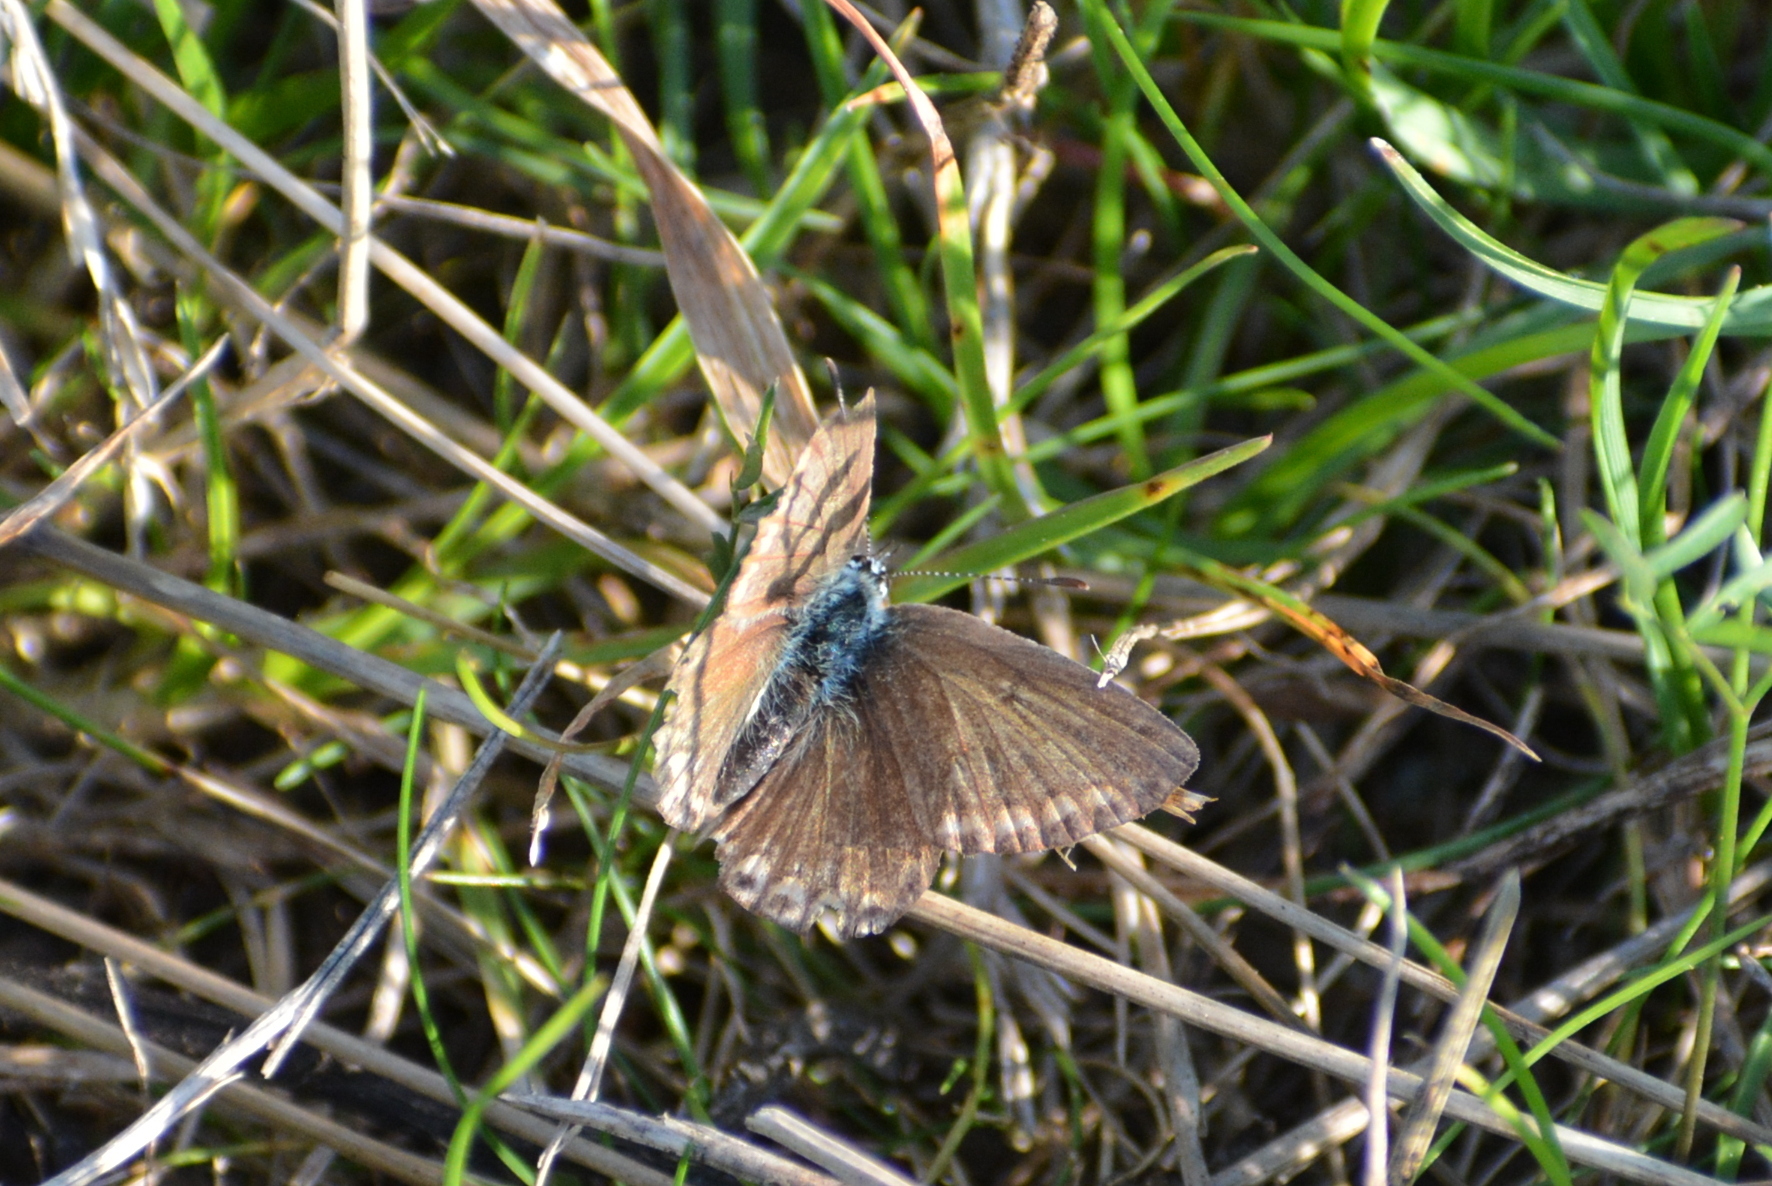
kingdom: Animalia
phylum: Arthropoda
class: Insecta
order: Lepidoptera
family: Lycaenidae
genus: Polyommatus
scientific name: Polyommatus icarus
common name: Common blue
